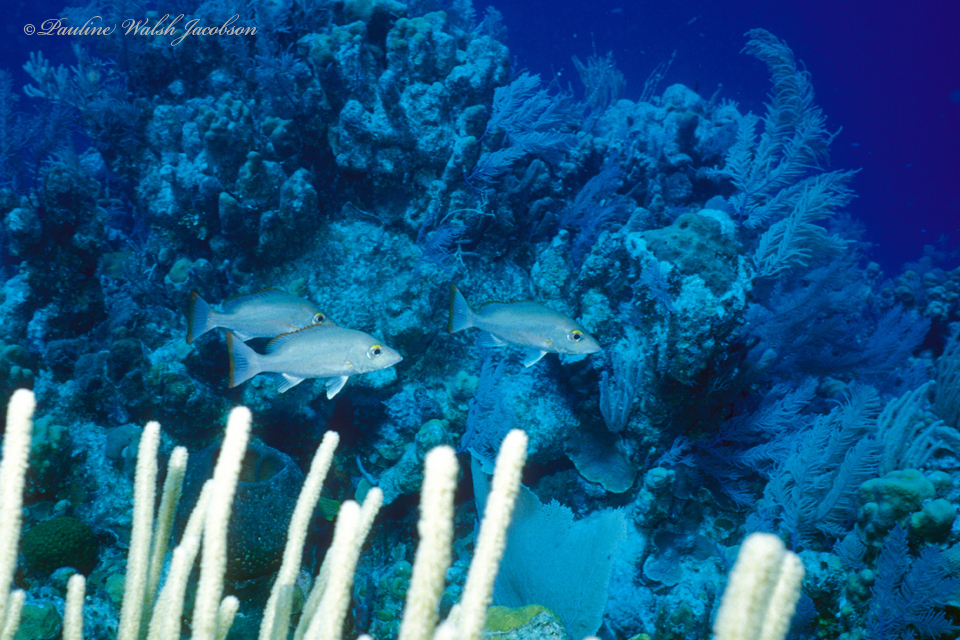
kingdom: Animalia
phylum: Chordata
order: Perciformes
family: Lutjanidae
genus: Lutjanus
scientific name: Lutjanus mahogoni
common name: Spot snapper
